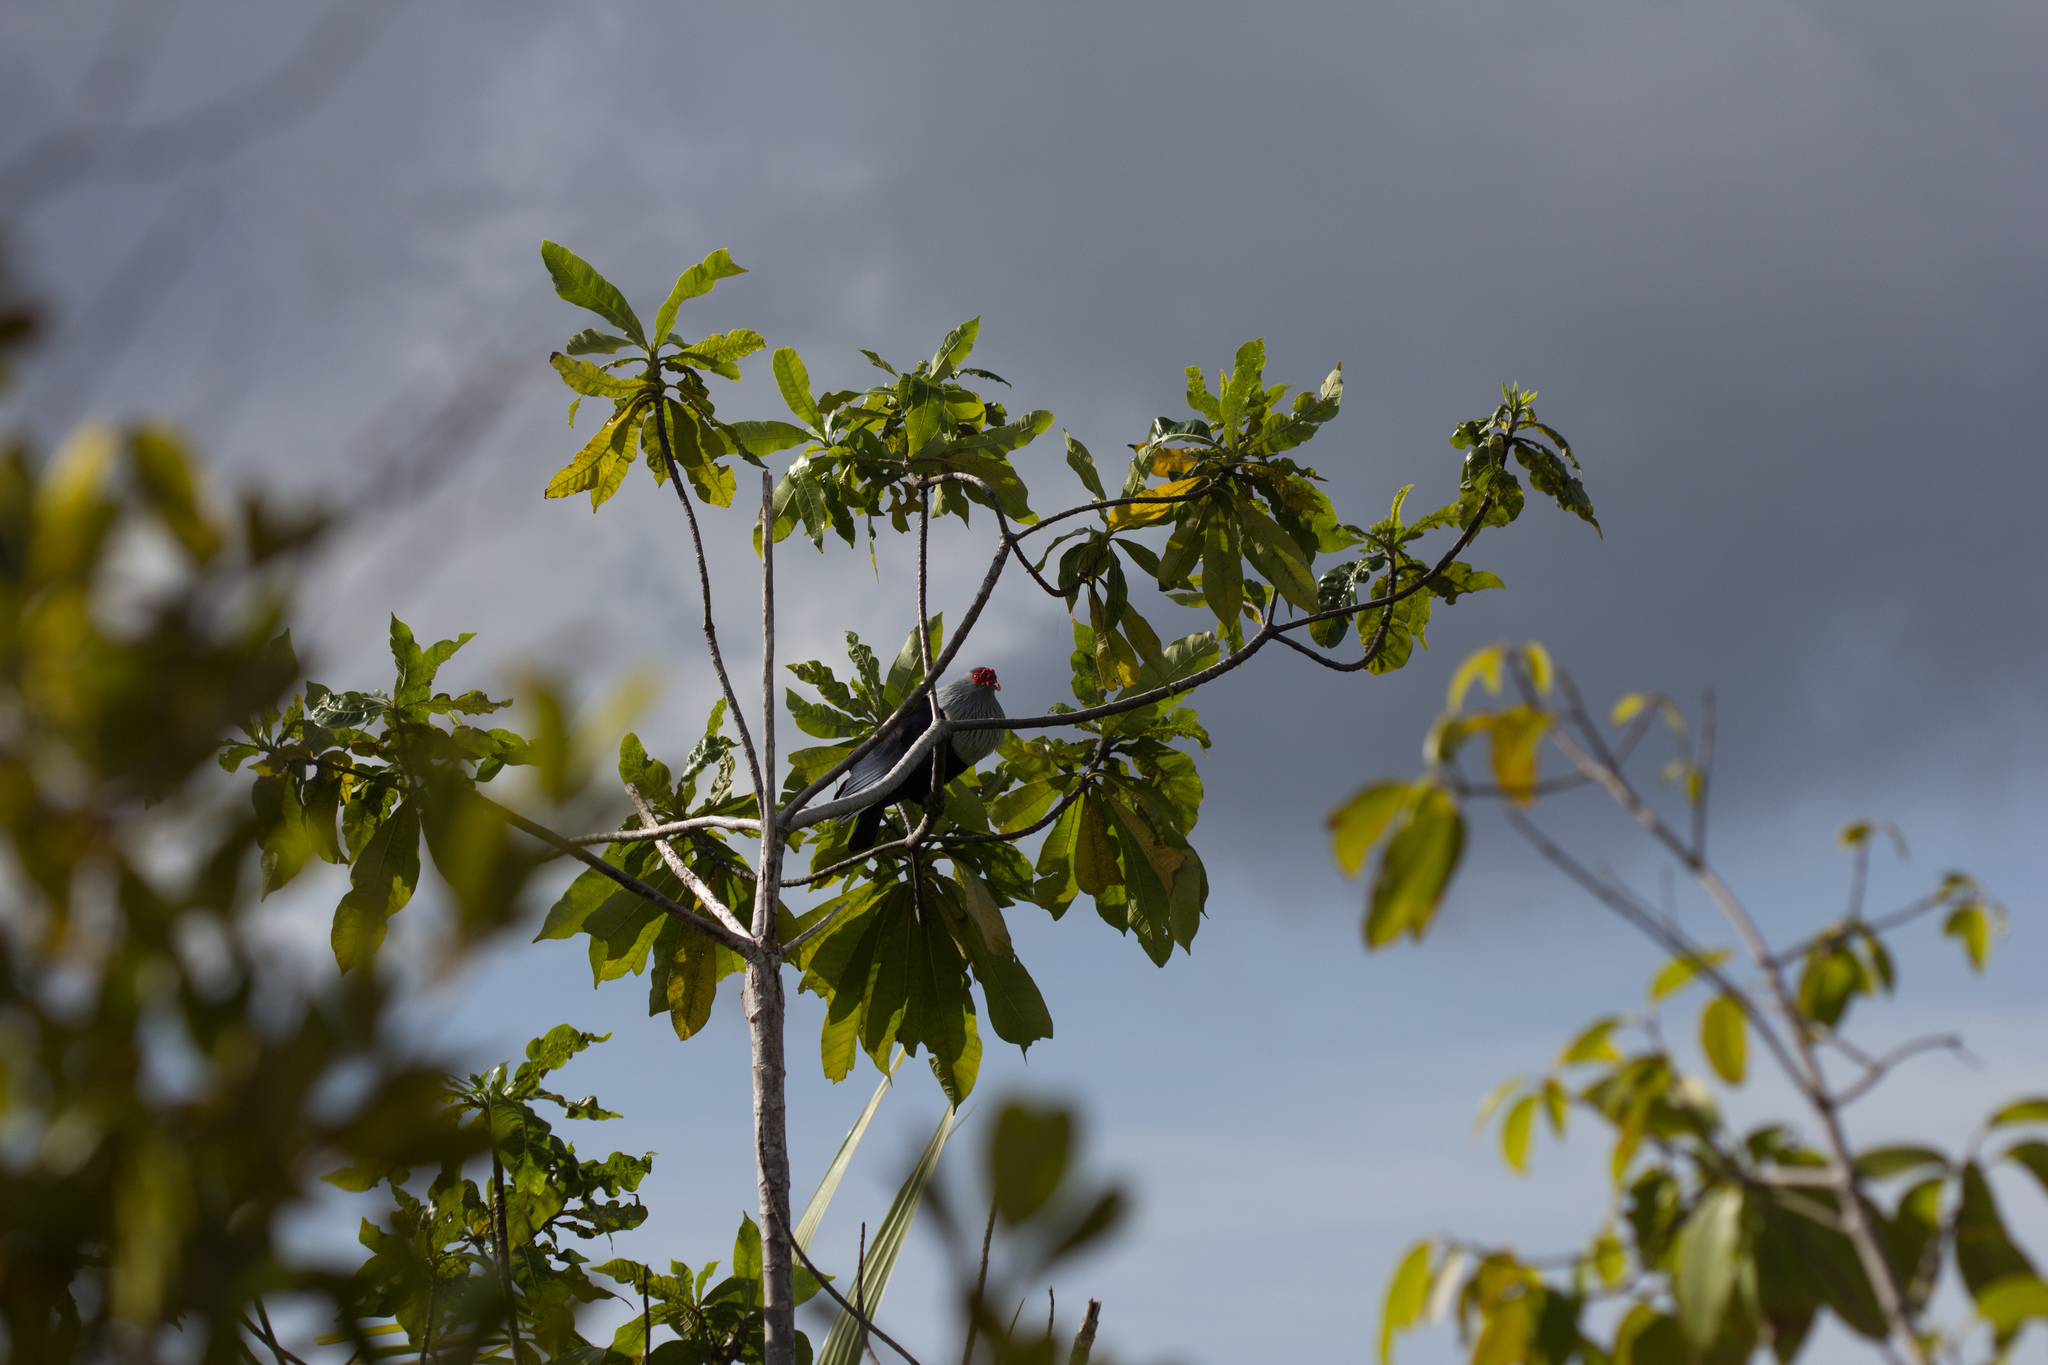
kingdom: Animalia
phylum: Chordata
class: Aves
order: Columbiformes
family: Columbidae
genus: Alectroenas
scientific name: Alectroenas pulcherrimus
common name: Seychelles blue pigeon
